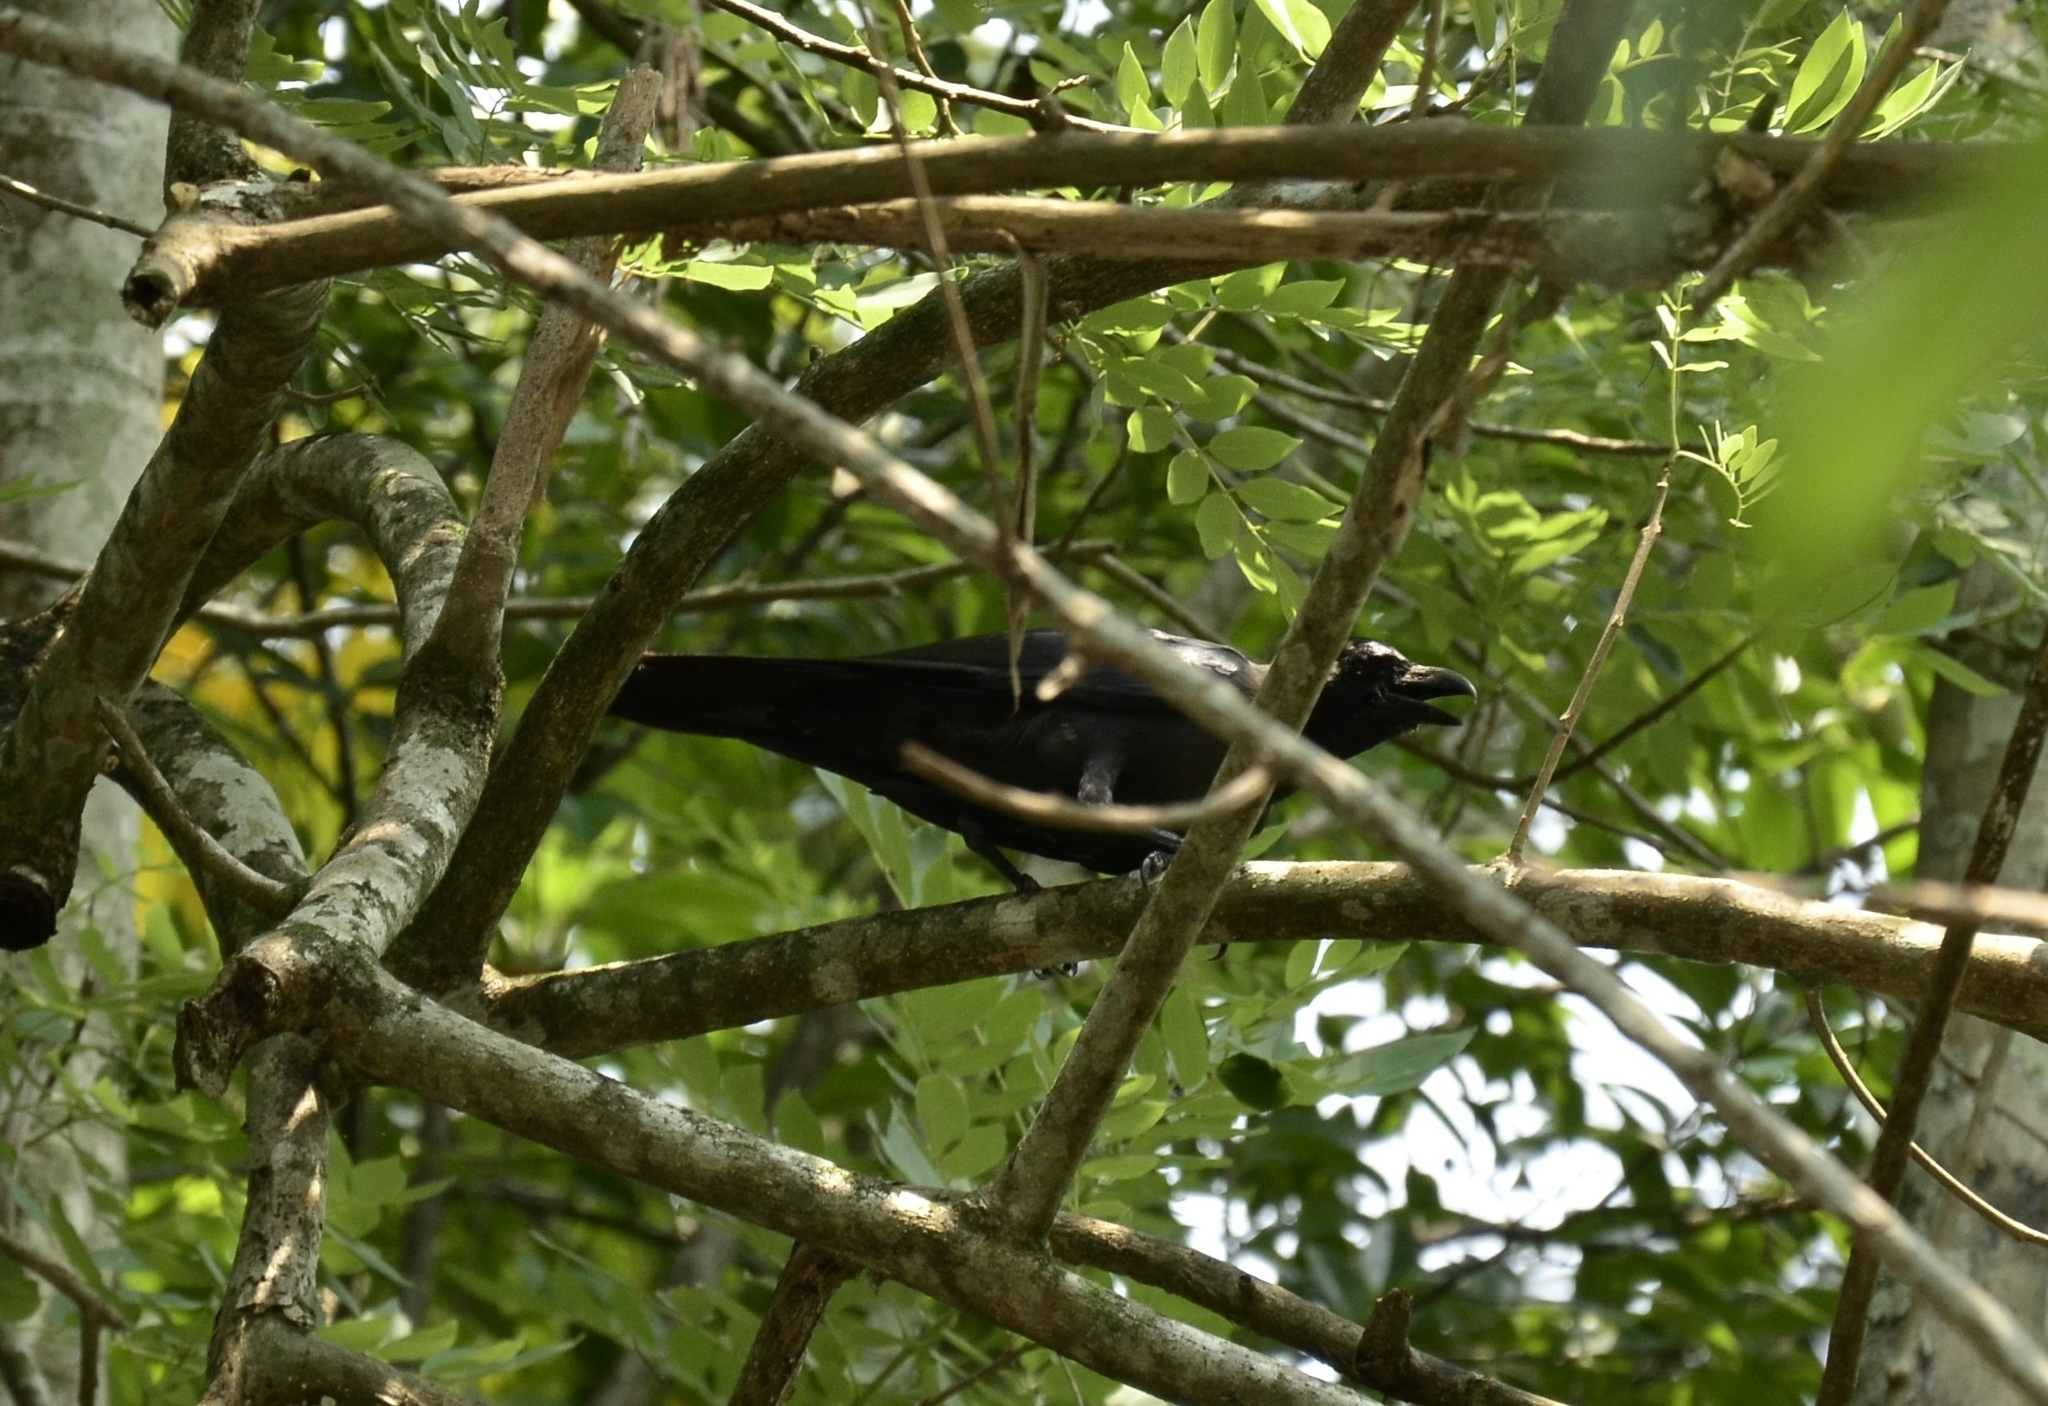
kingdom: Animalia
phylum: Chordata
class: Aves
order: Passeriformes
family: Corvidae
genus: Corvus
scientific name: Corvus splendens
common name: House crow
